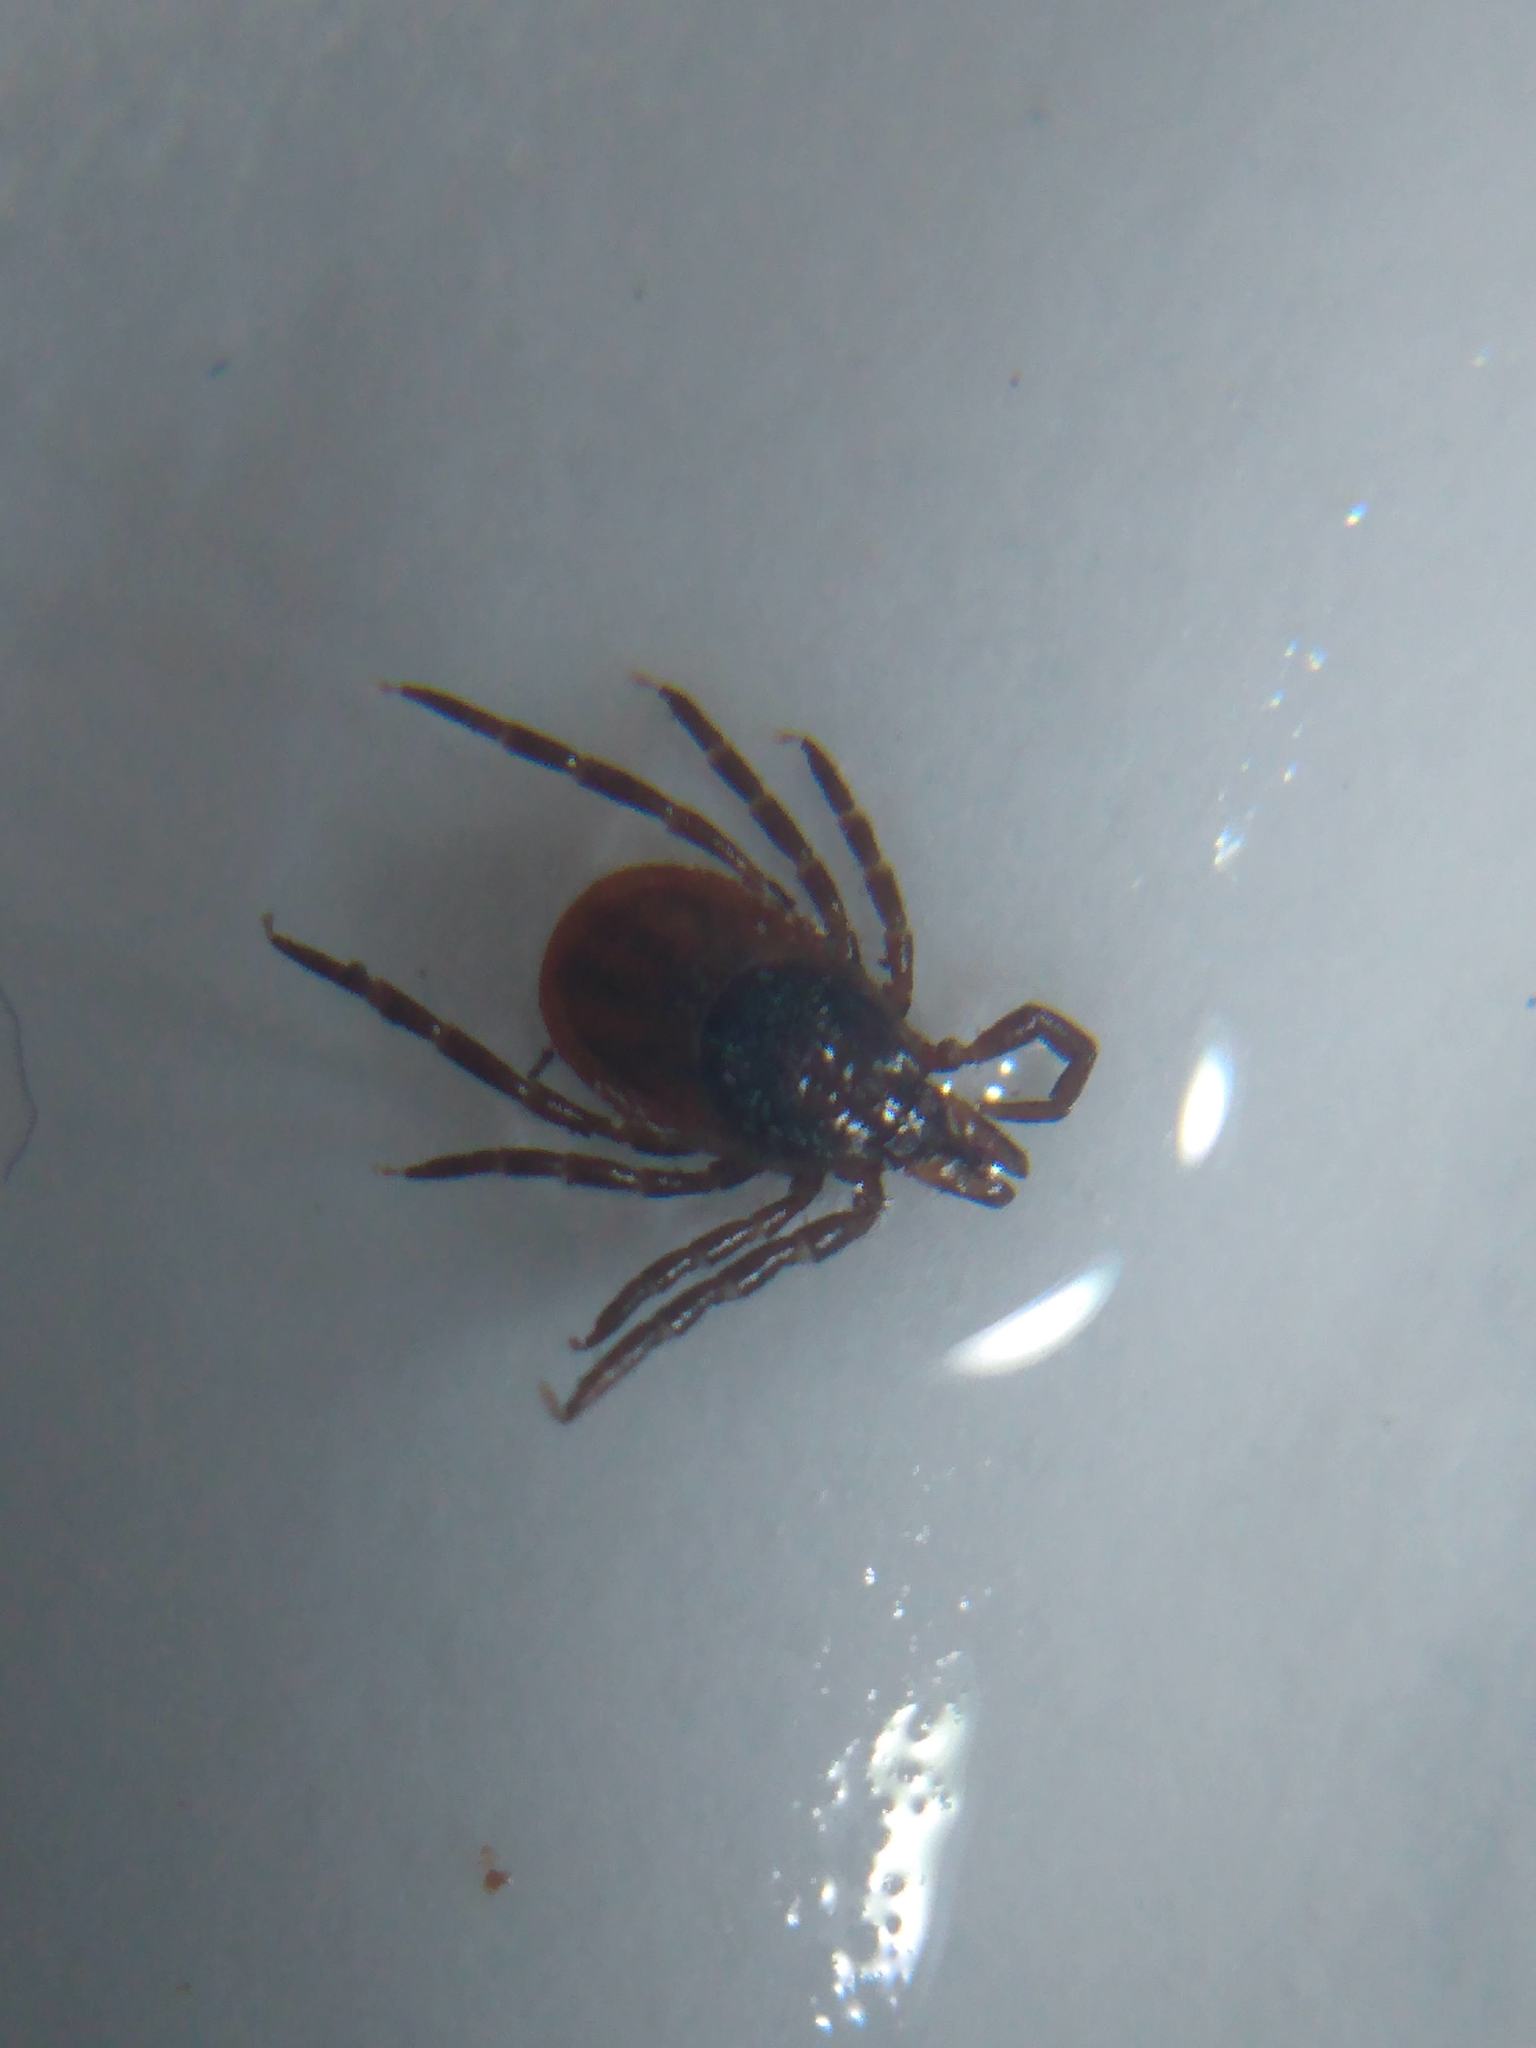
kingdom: Animalia
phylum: Arthropoda
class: Arachnida
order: Ixodida
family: Ixodidae
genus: Ixodes
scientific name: Ixodes scapularis
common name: Black legged tick
